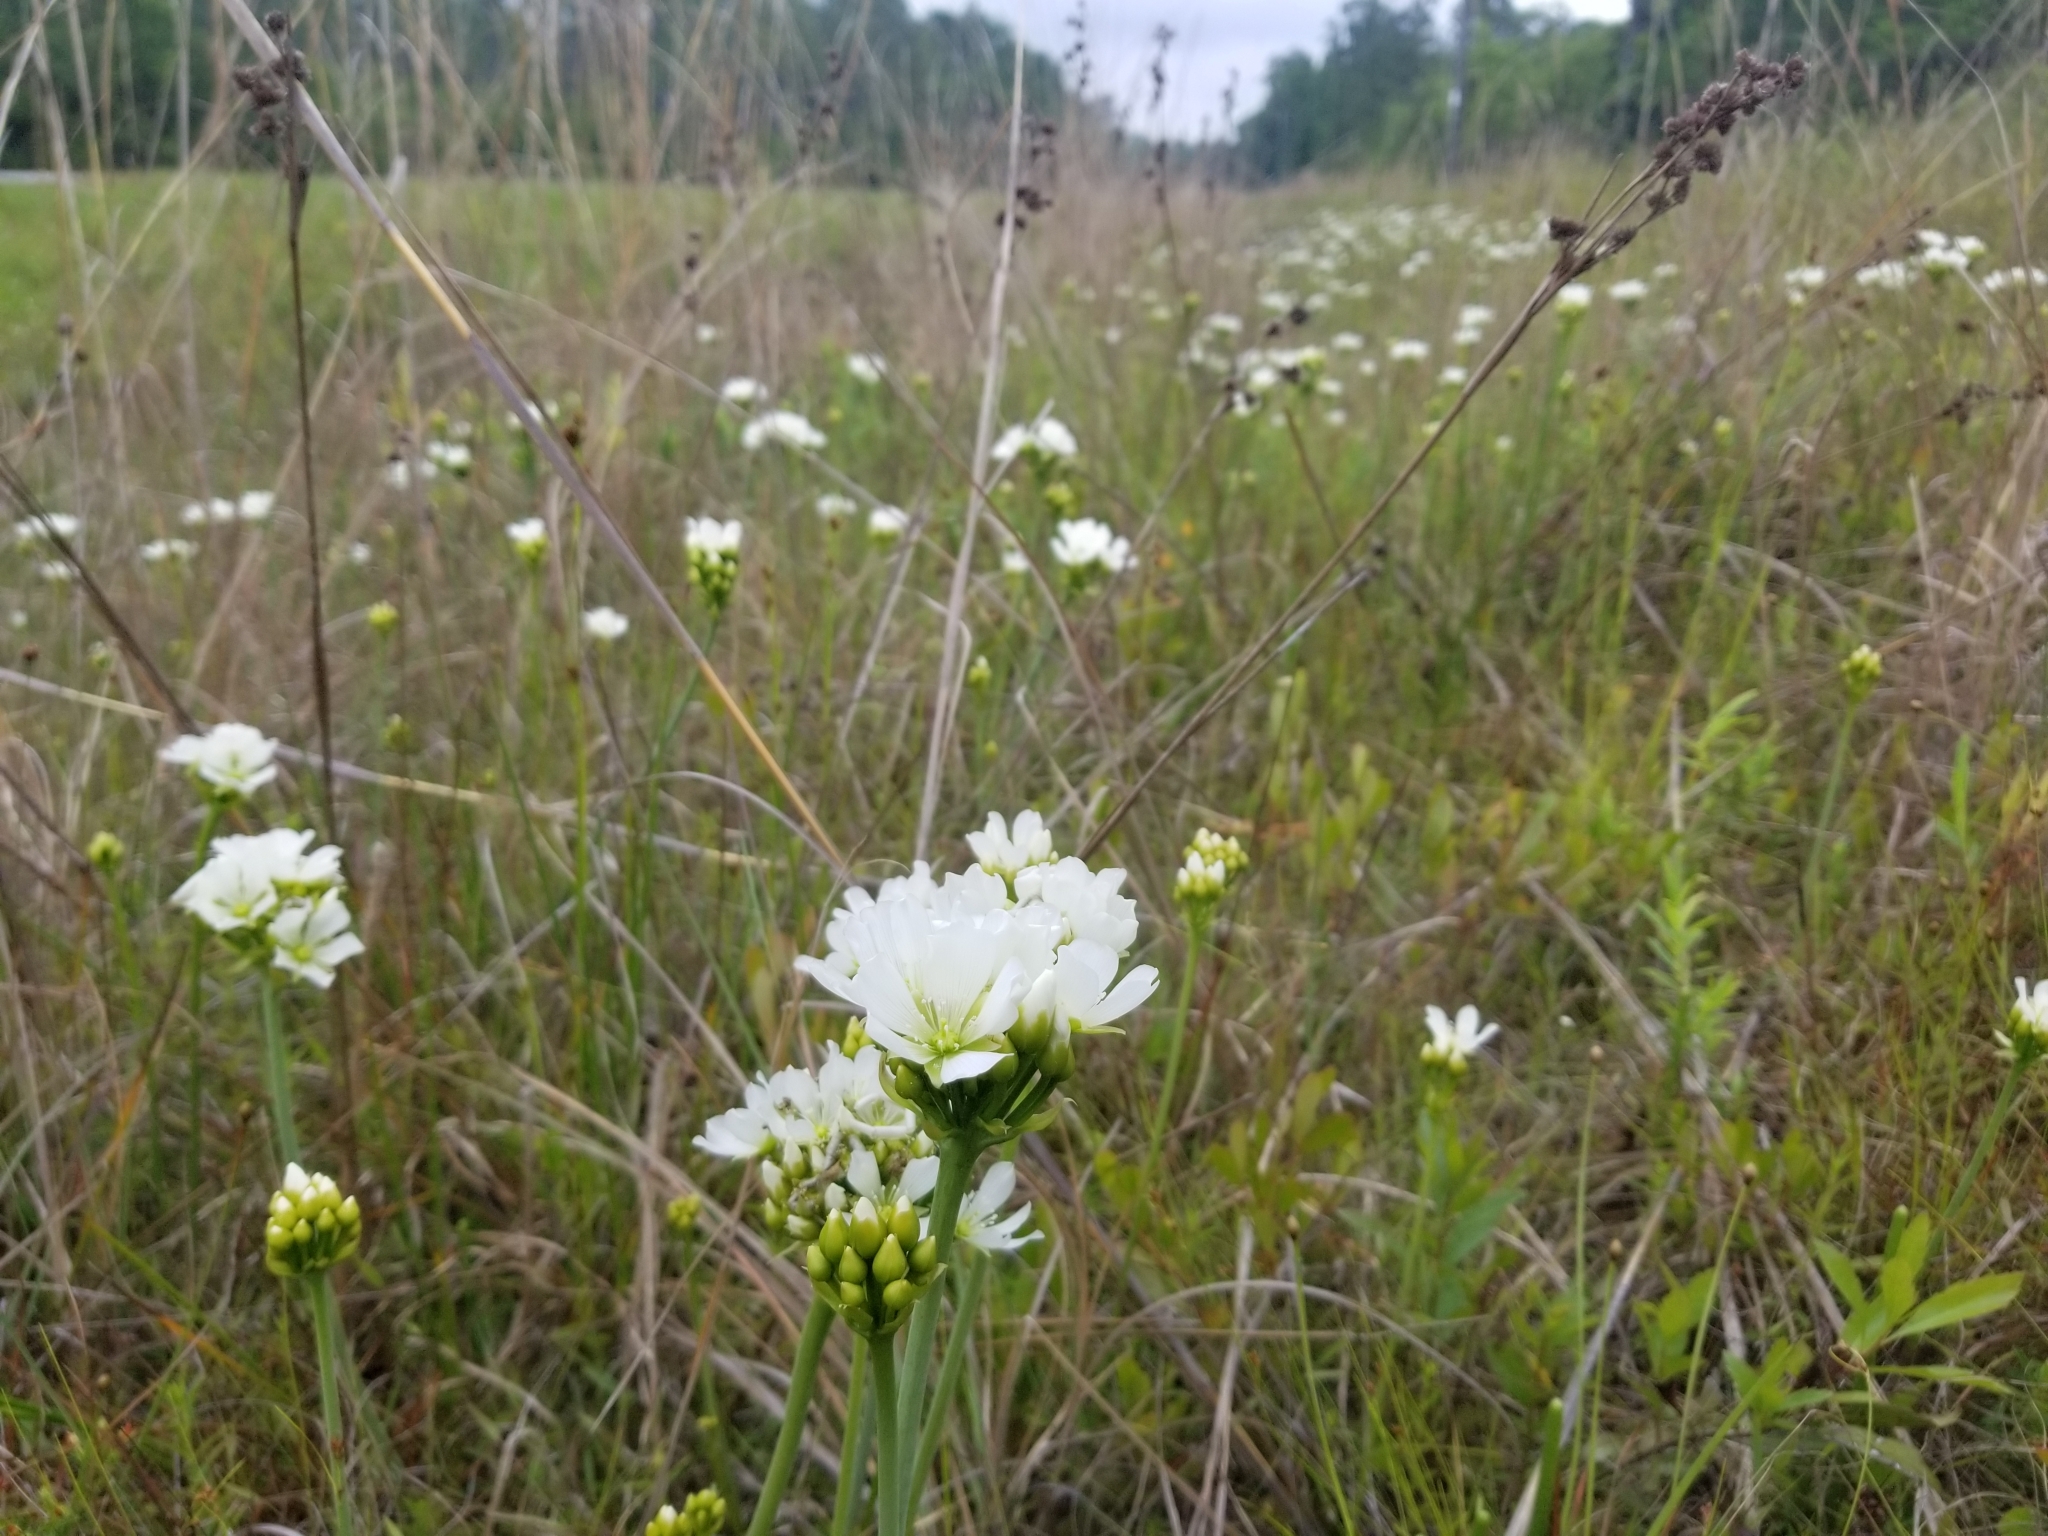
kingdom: Plantae
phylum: Tracheophyta
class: Magnoliopsida
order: Caryophyllales
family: Droseraceae
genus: Dionaea
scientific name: Dionaea muscipula
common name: Venus flytrap
